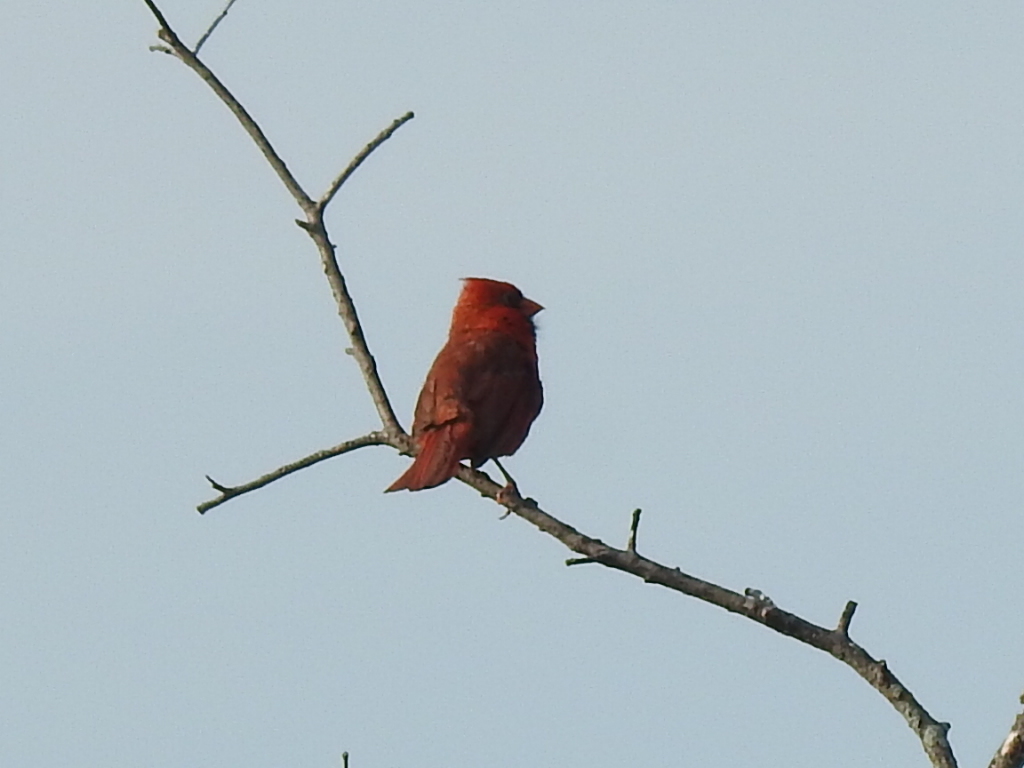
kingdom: Animalia
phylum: Chordata
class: Aves
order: Passeriformes
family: Cardinalidae
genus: Cardinalis
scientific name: Cardinalis cardinalis
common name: Northern cardinal
